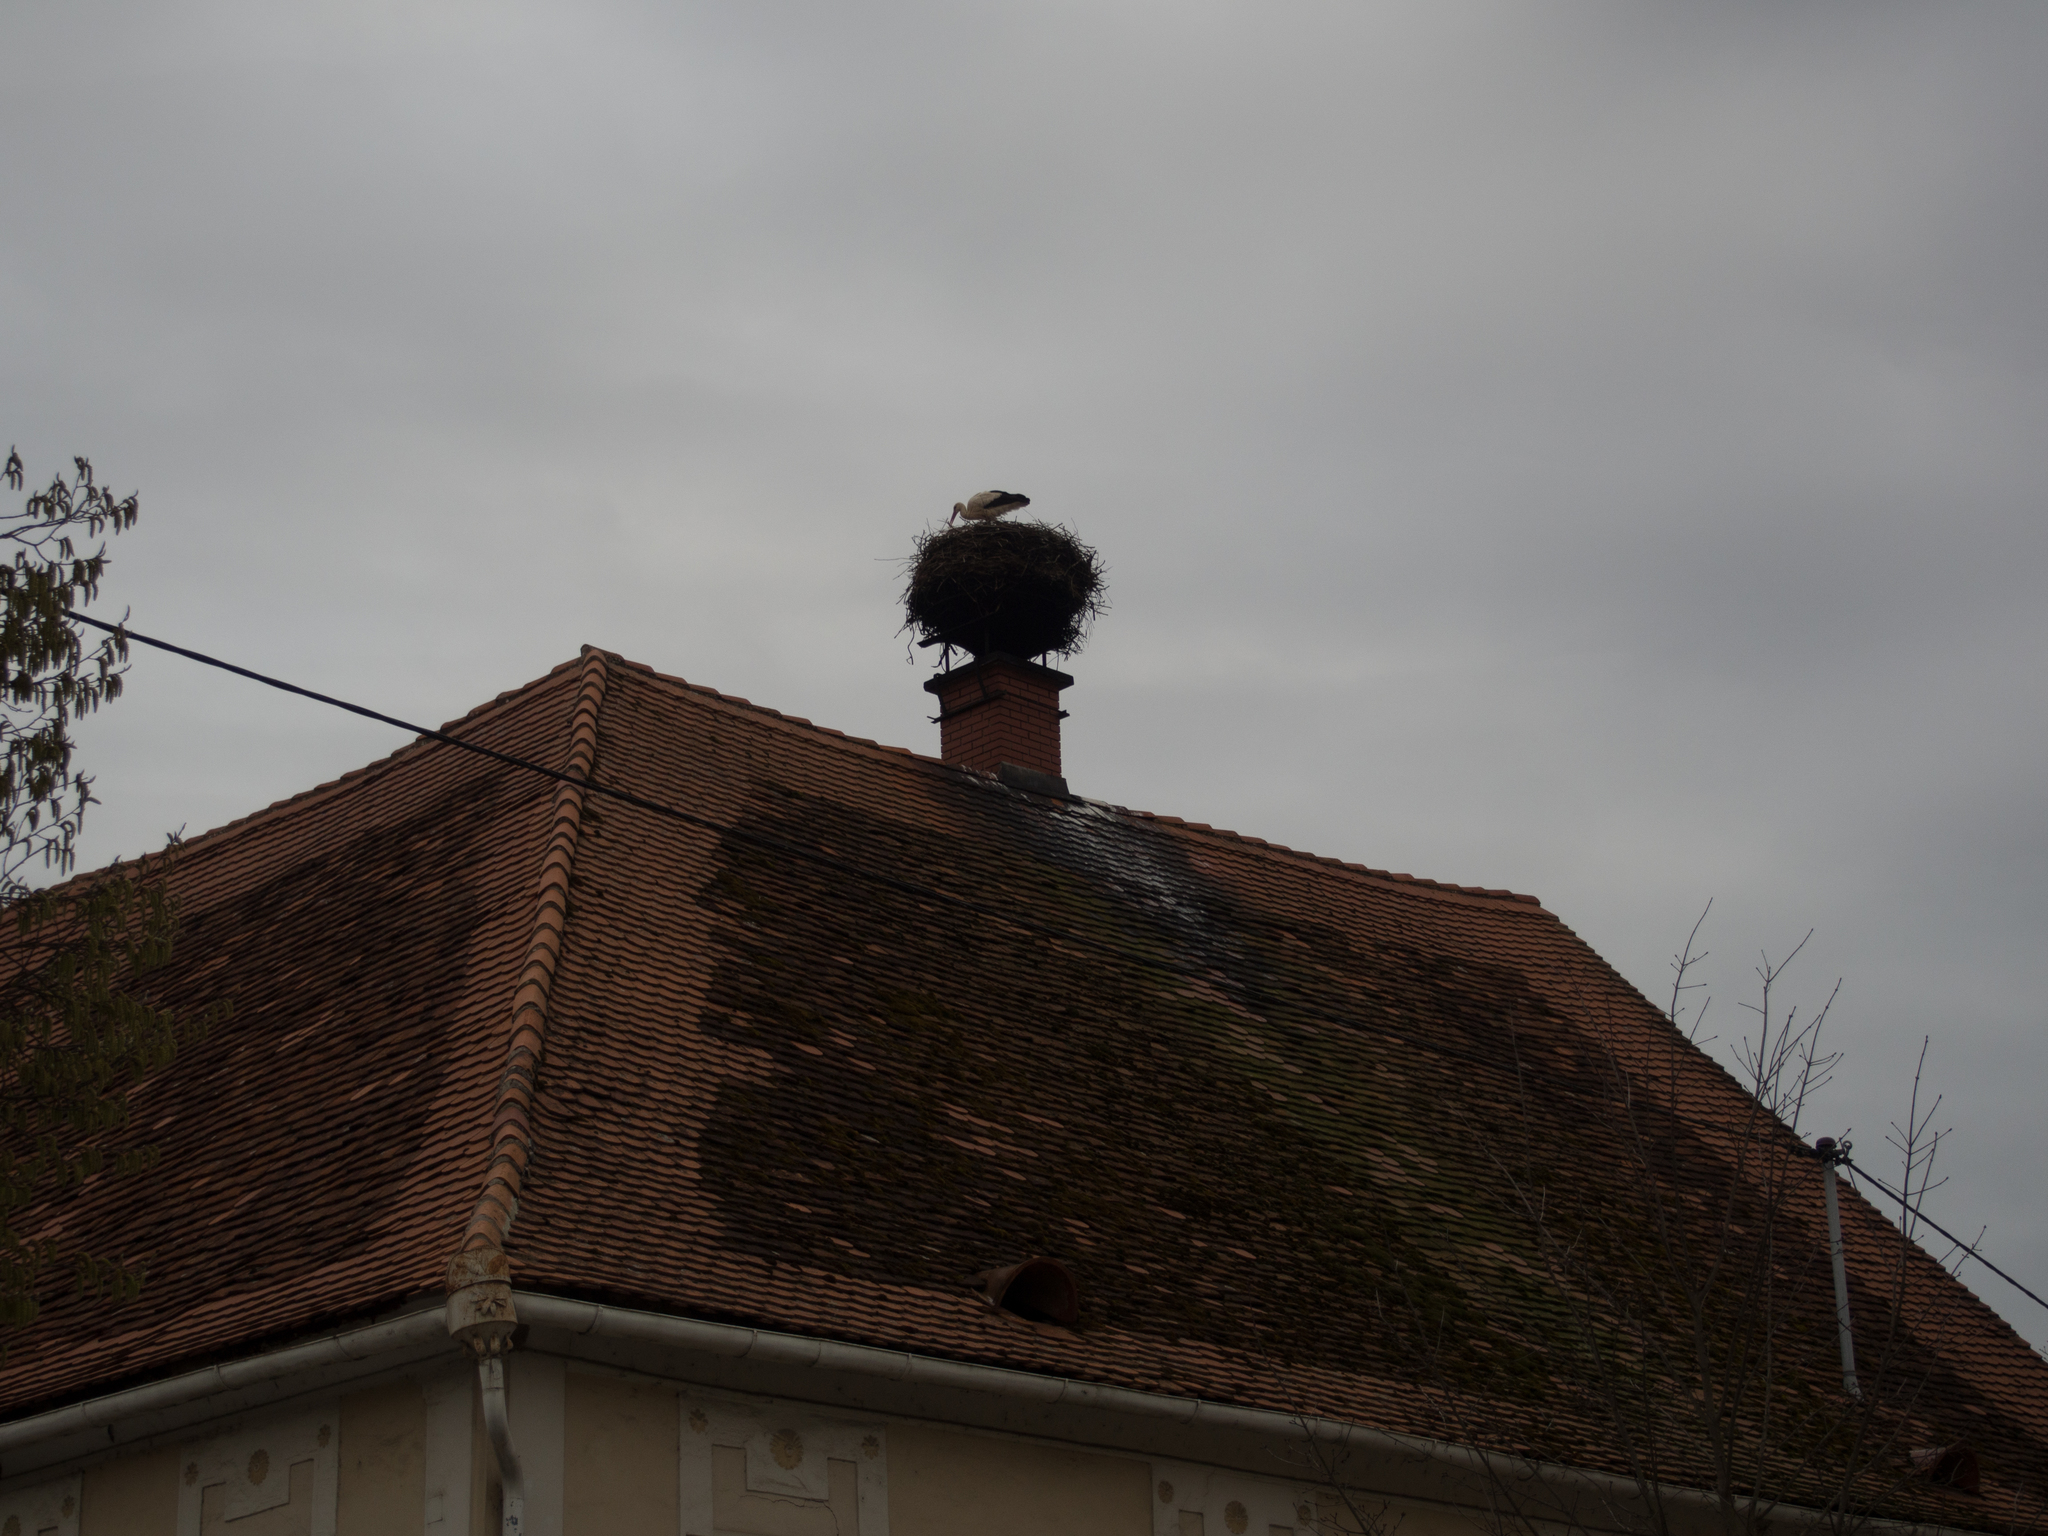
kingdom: Animalia
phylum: Chordata
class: Aves
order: Ciconiiformes
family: Ciconiidae
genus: Ciconia
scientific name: Ciconia ciconia
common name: White stork
